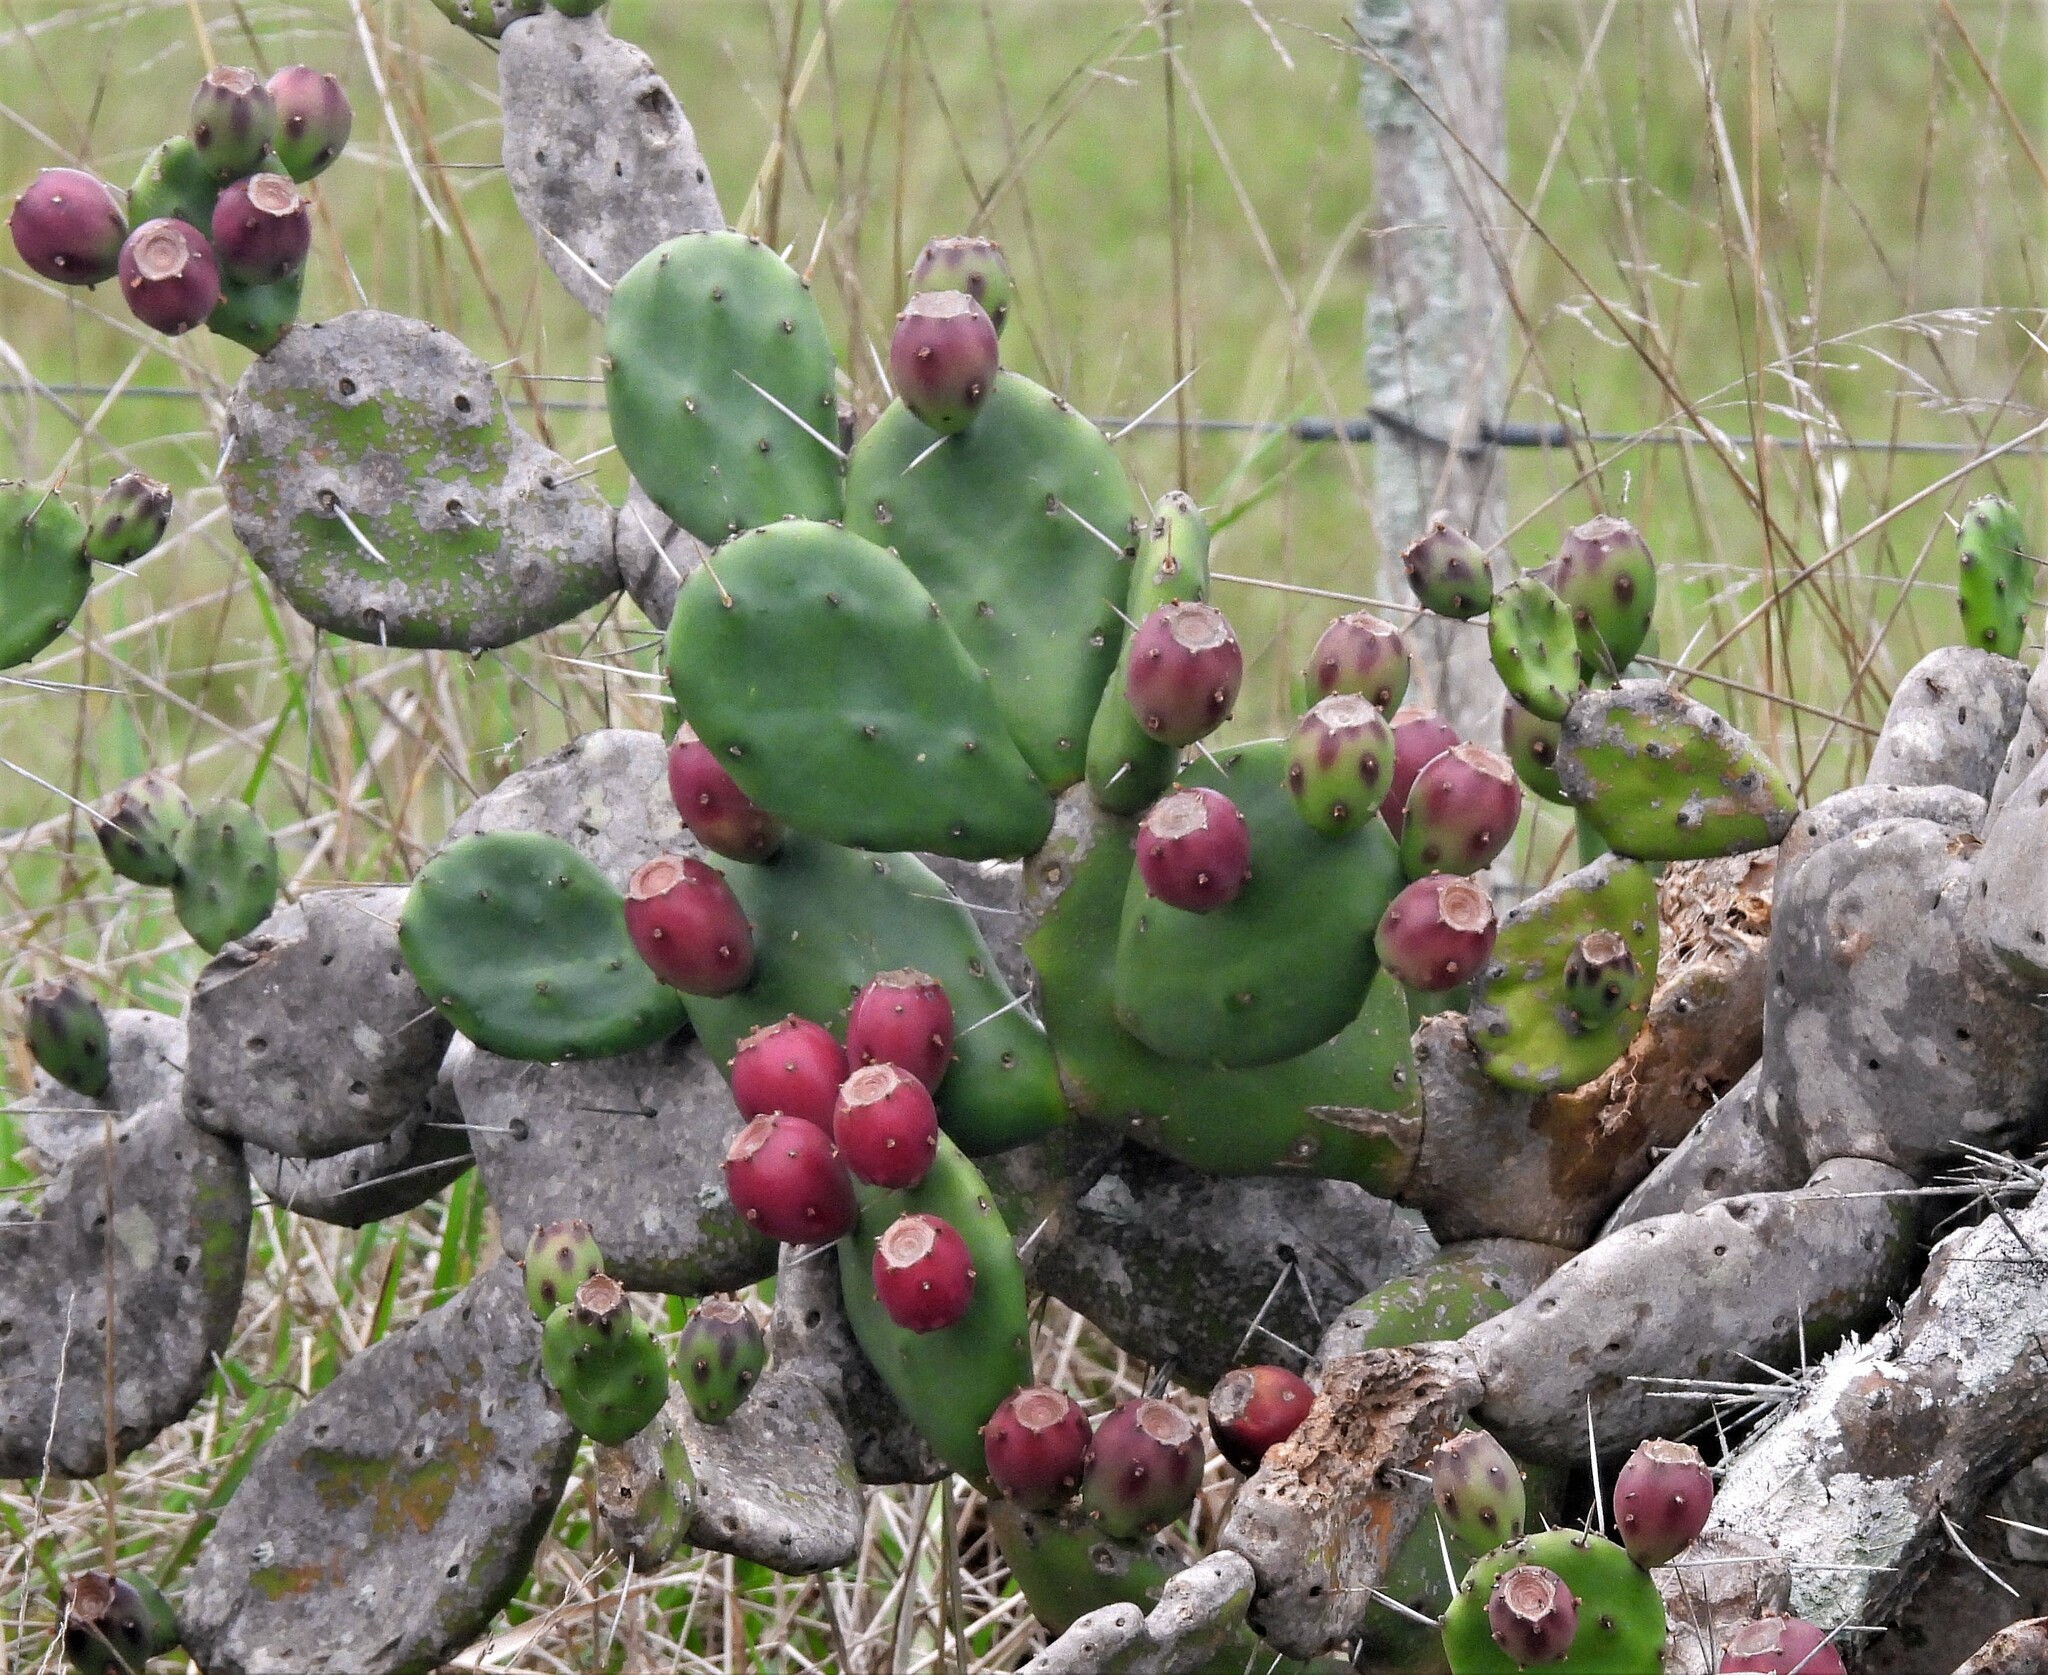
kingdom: Plantae
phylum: Tracheophyta
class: Magnoliopsida
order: Caryophyllales
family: Cactaceae
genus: Opuntia
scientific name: Opuntia elata
